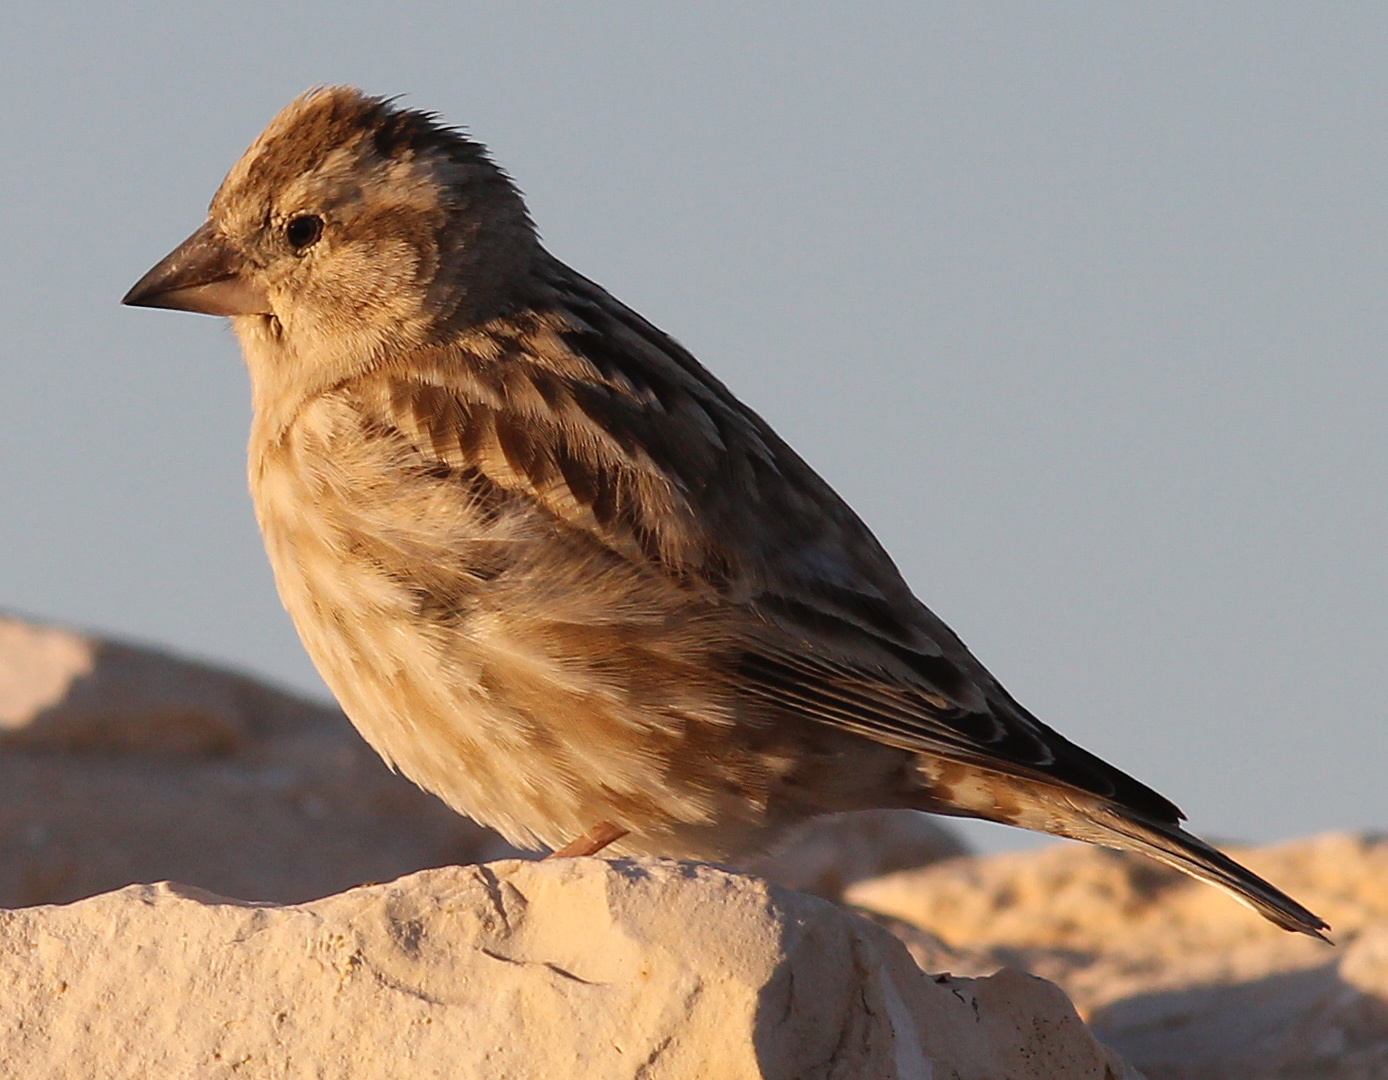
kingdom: Animalia
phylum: Chordata
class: Aves
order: Passeriformes
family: Passeridae
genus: Petronia
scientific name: Petronia petronia
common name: Rock sparrow
